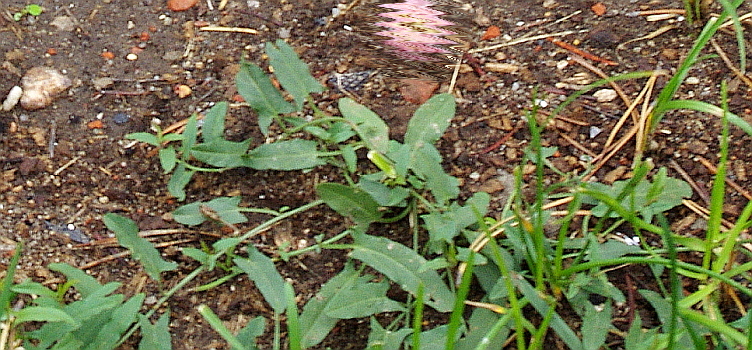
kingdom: Plantae
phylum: Tracheophyta
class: Magnoliopsida
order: Solanales
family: Convolvulaceae
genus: Convolvulus
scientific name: Convolvulus arvensis
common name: Field bindweed
